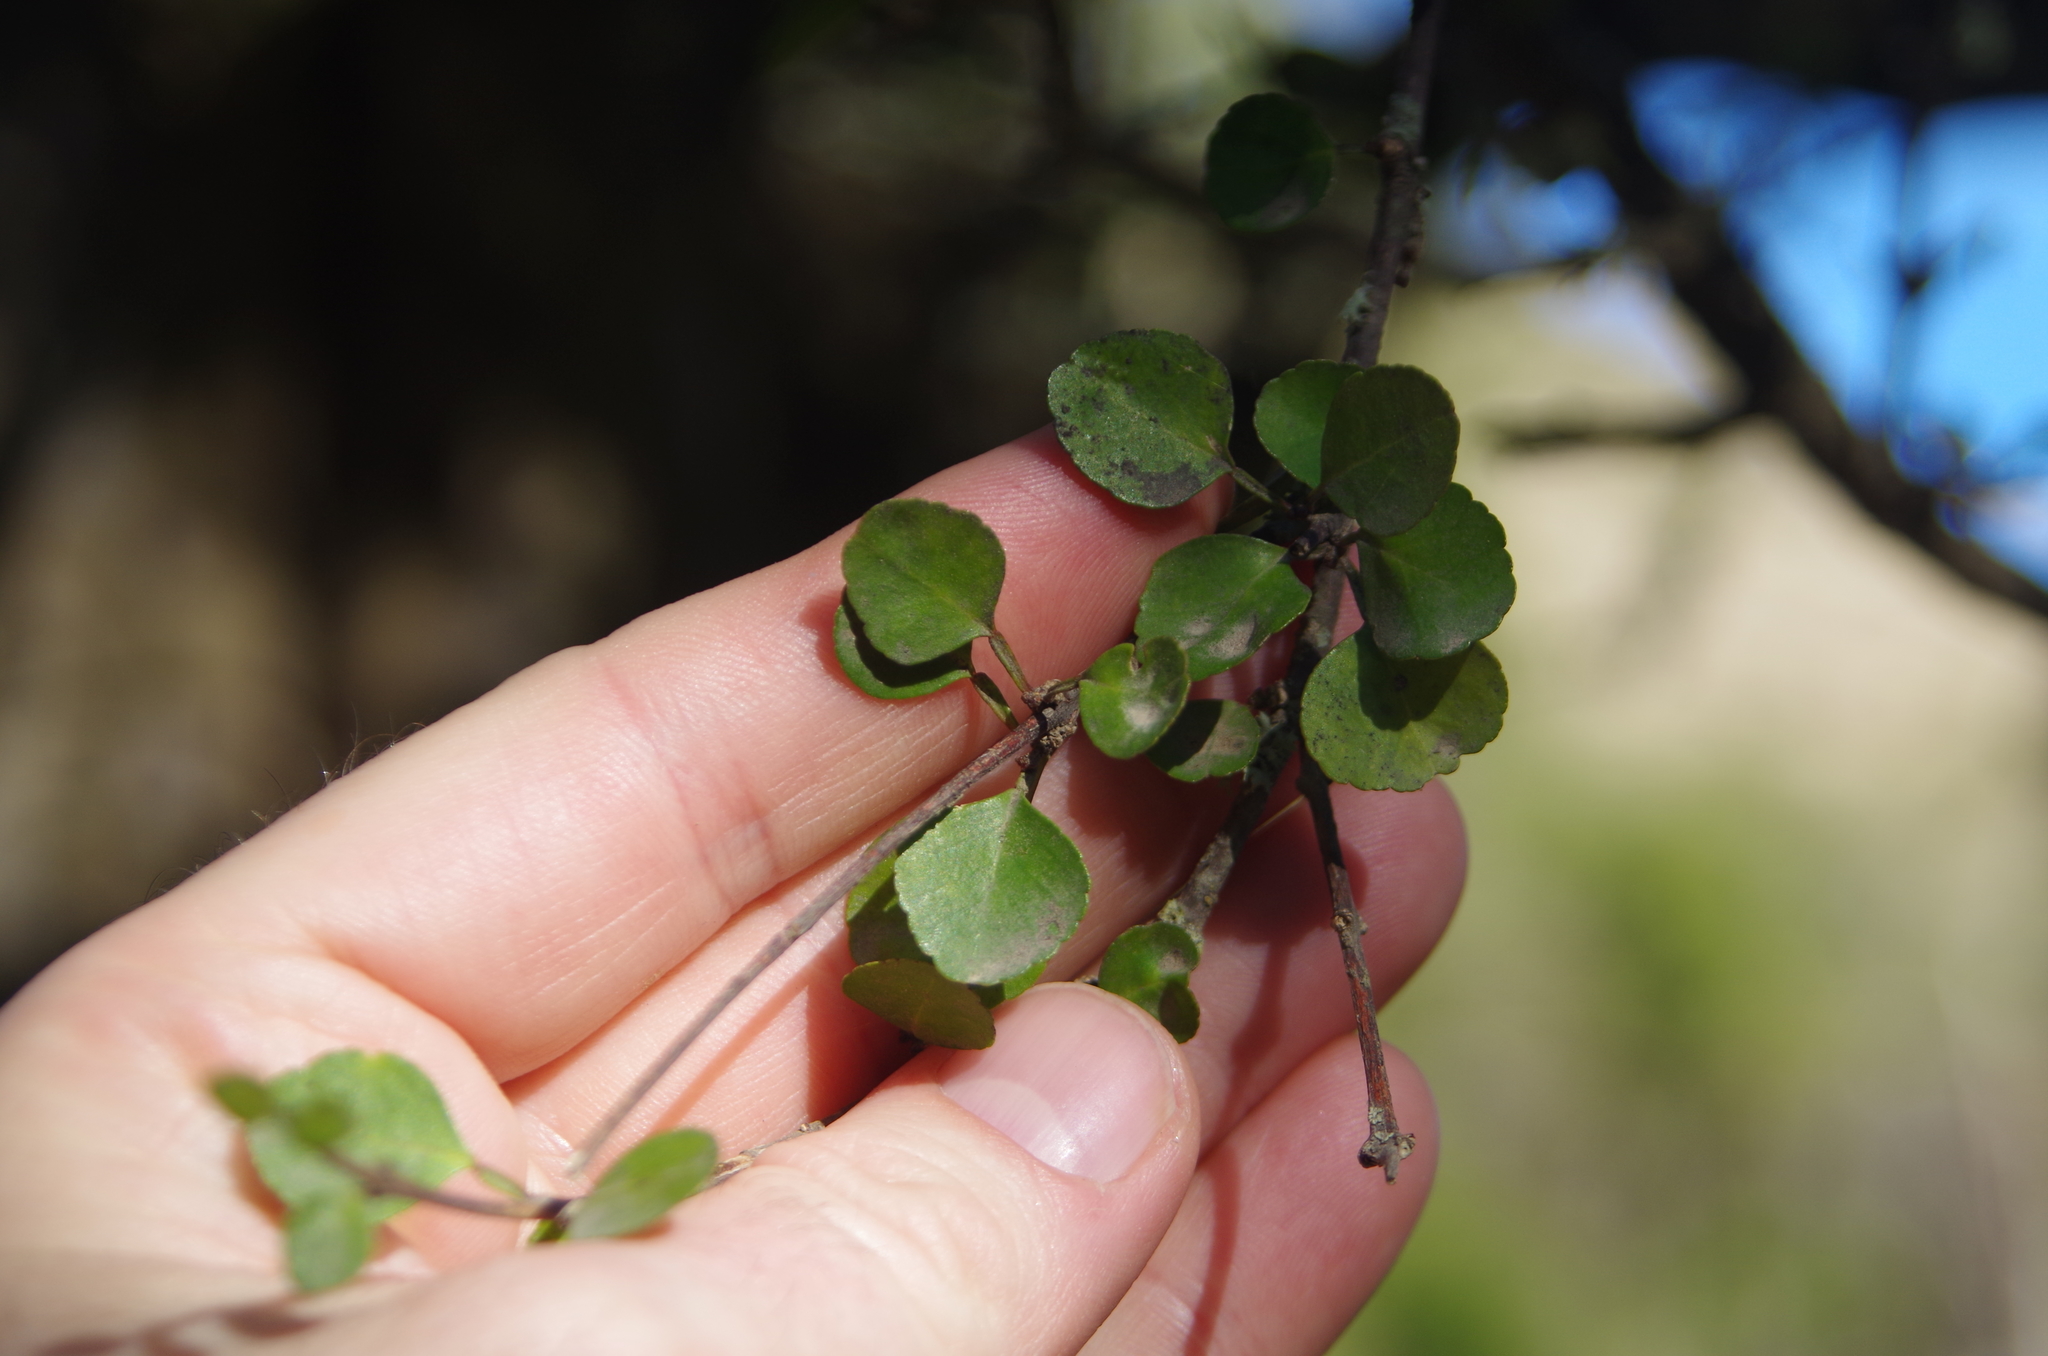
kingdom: Plantae
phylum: Tracheophyta
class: Magnoliopsida
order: Sapindales
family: Rutaceae
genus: Melicope
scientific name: Melicope simplex
